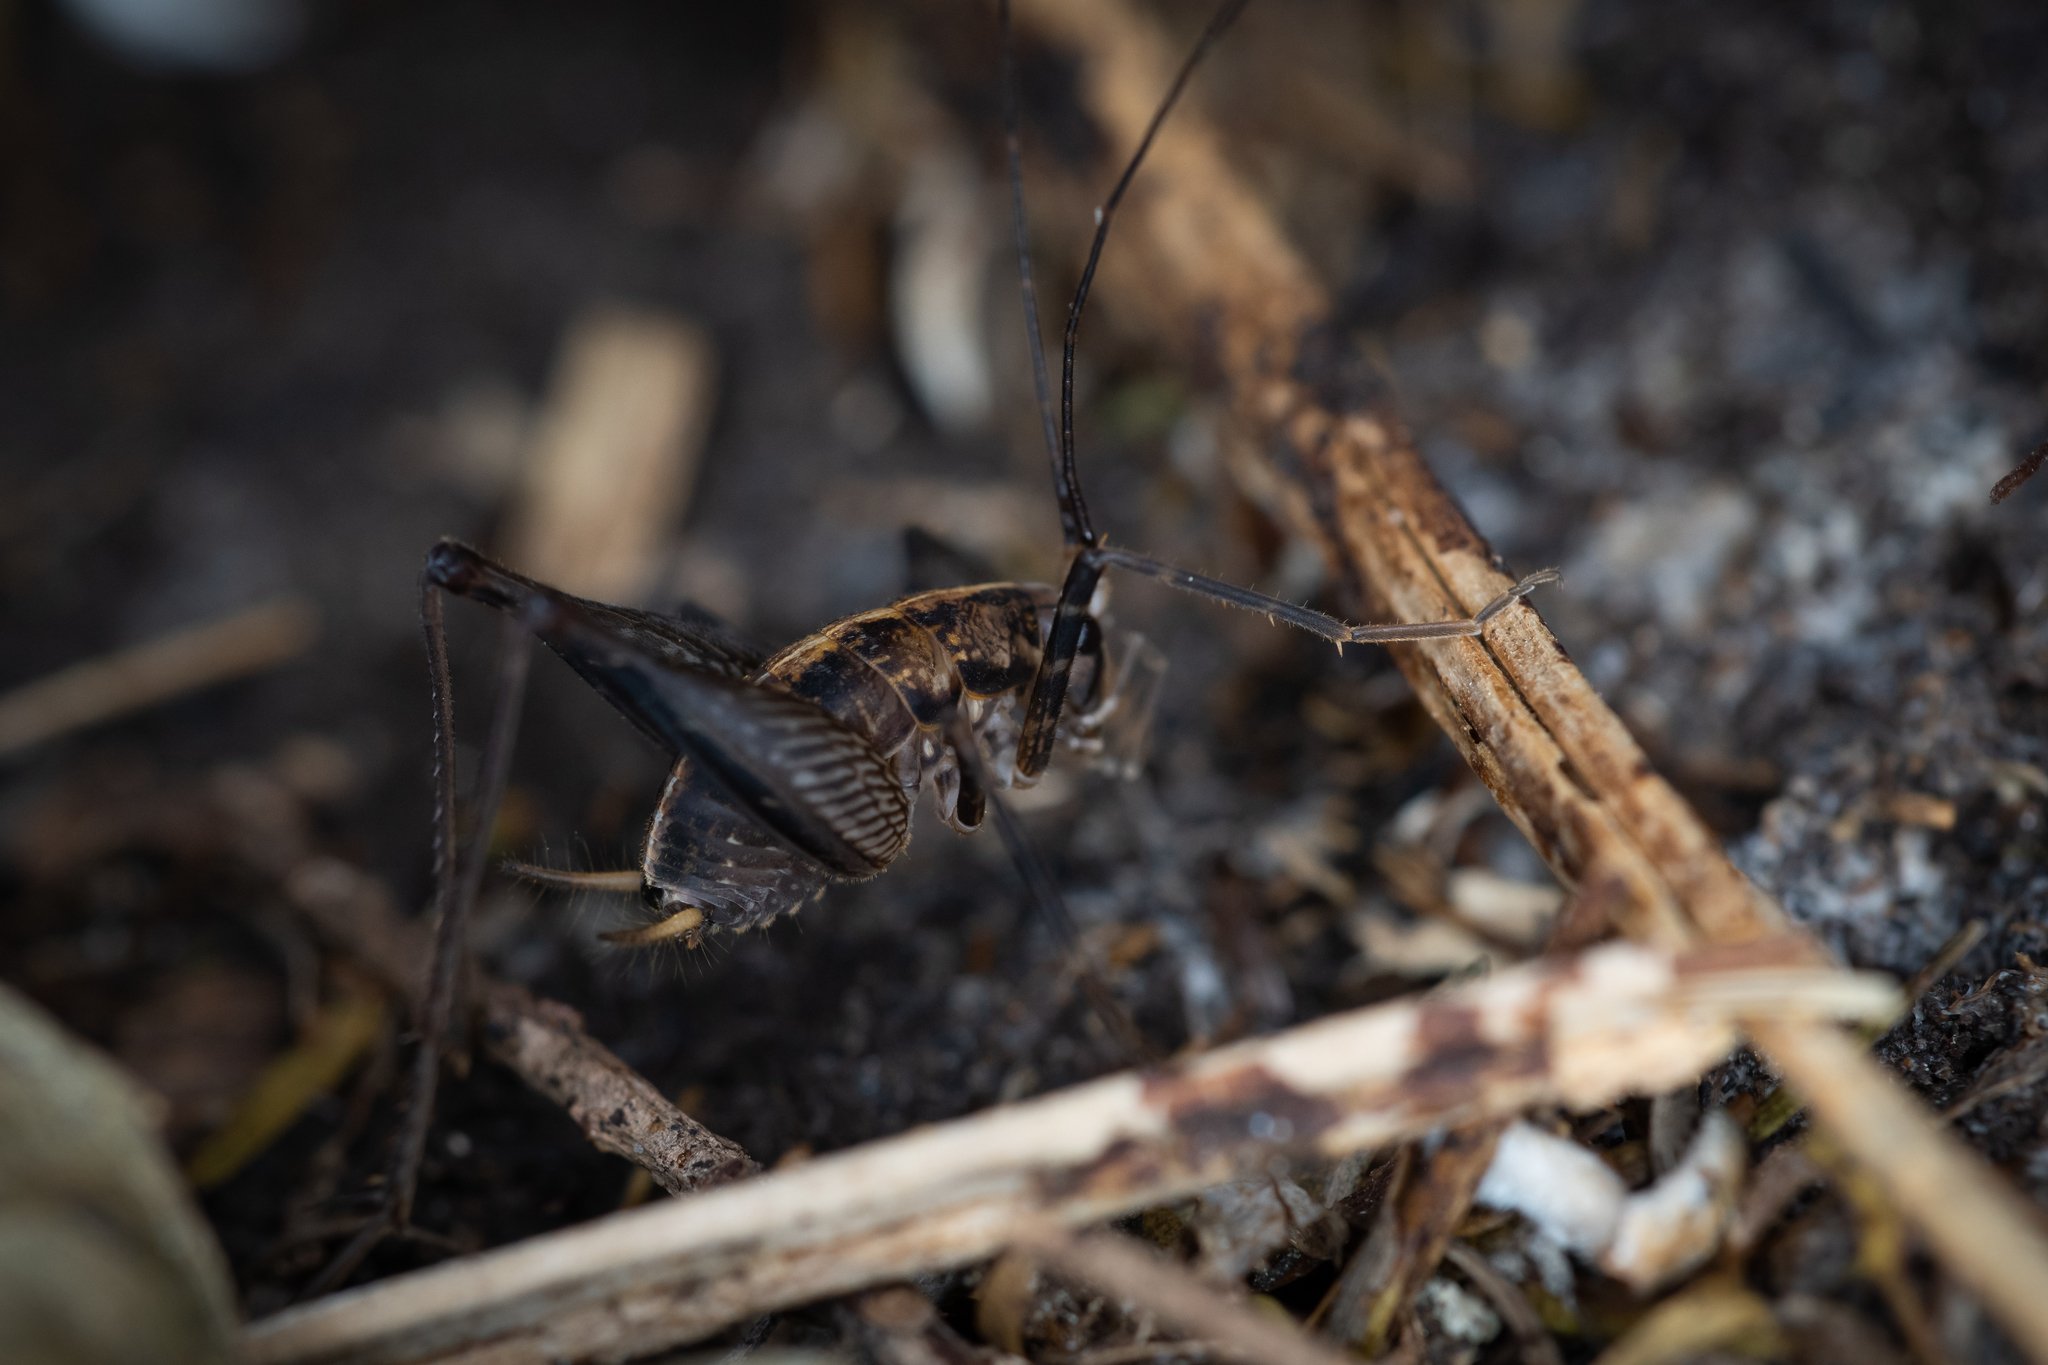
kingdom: Animalia
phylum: Arthropoda
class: Insecta
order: Orthoptera
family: Rhaphidophoridae
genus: Pleioplectron
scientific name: Pleioplectron hudsoni
